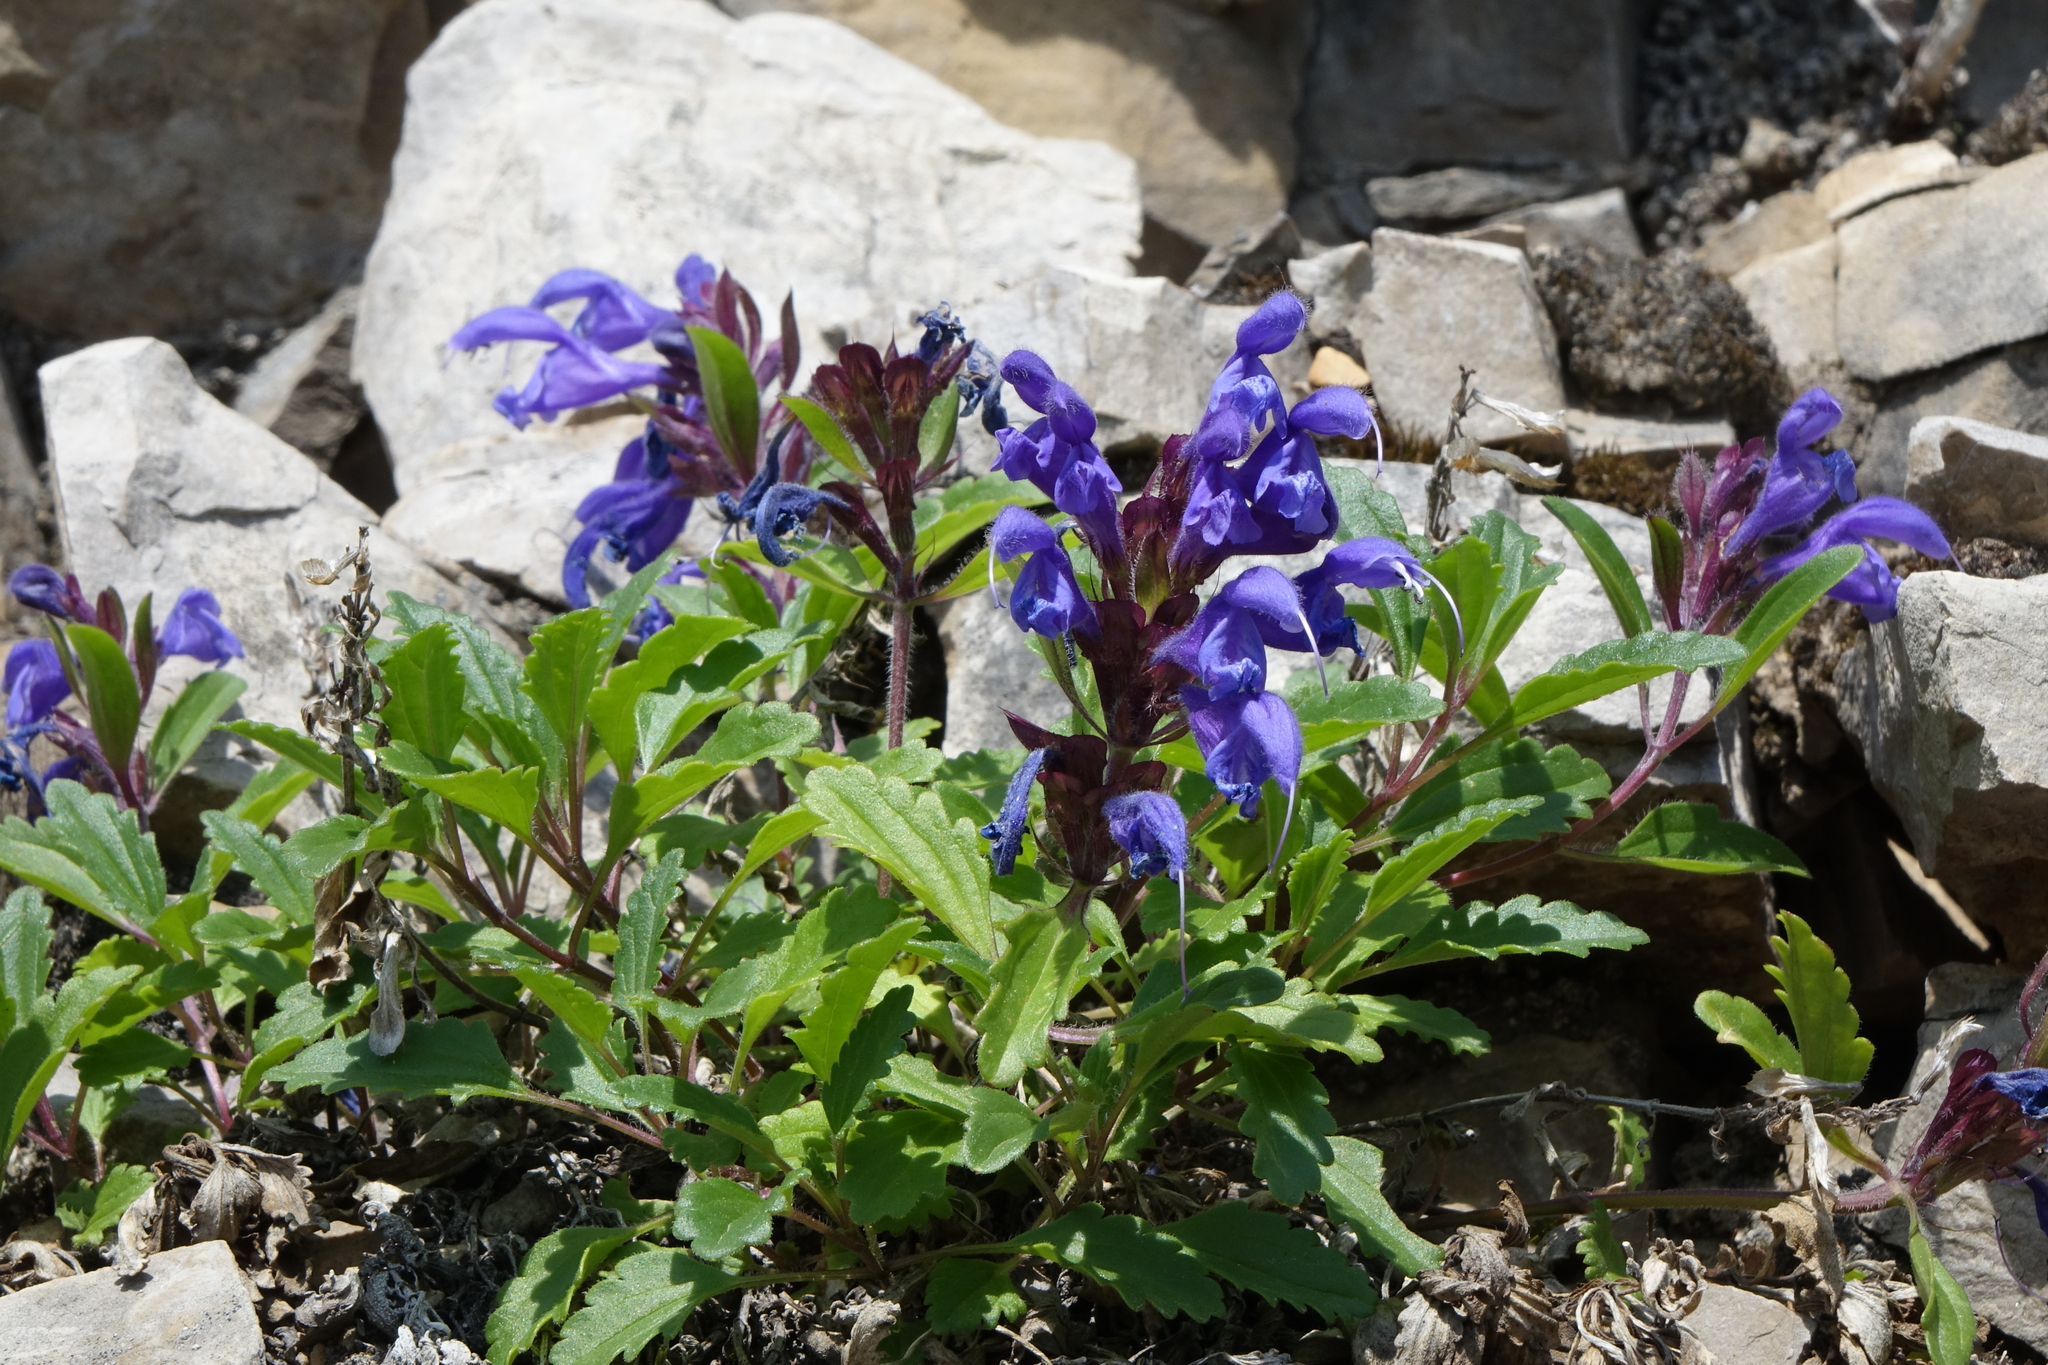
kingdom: Plantae
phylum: Tracheophyta
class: Magnoliopsida
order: Lamiales
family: Lamiaceae
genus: Dracocephalum
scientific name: Dracocephalum stellerianum
